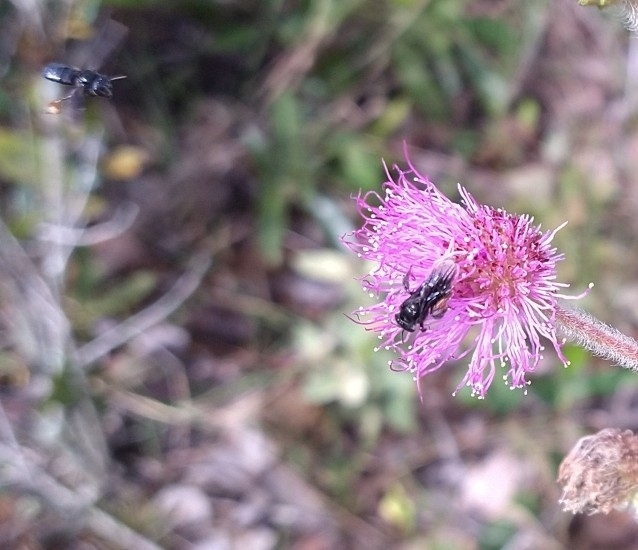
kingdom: Animalia
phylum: Arthropoda
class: Insecta
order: Hymenoptera
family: Apidae
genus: Trigona
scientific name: Trigona spinipes
